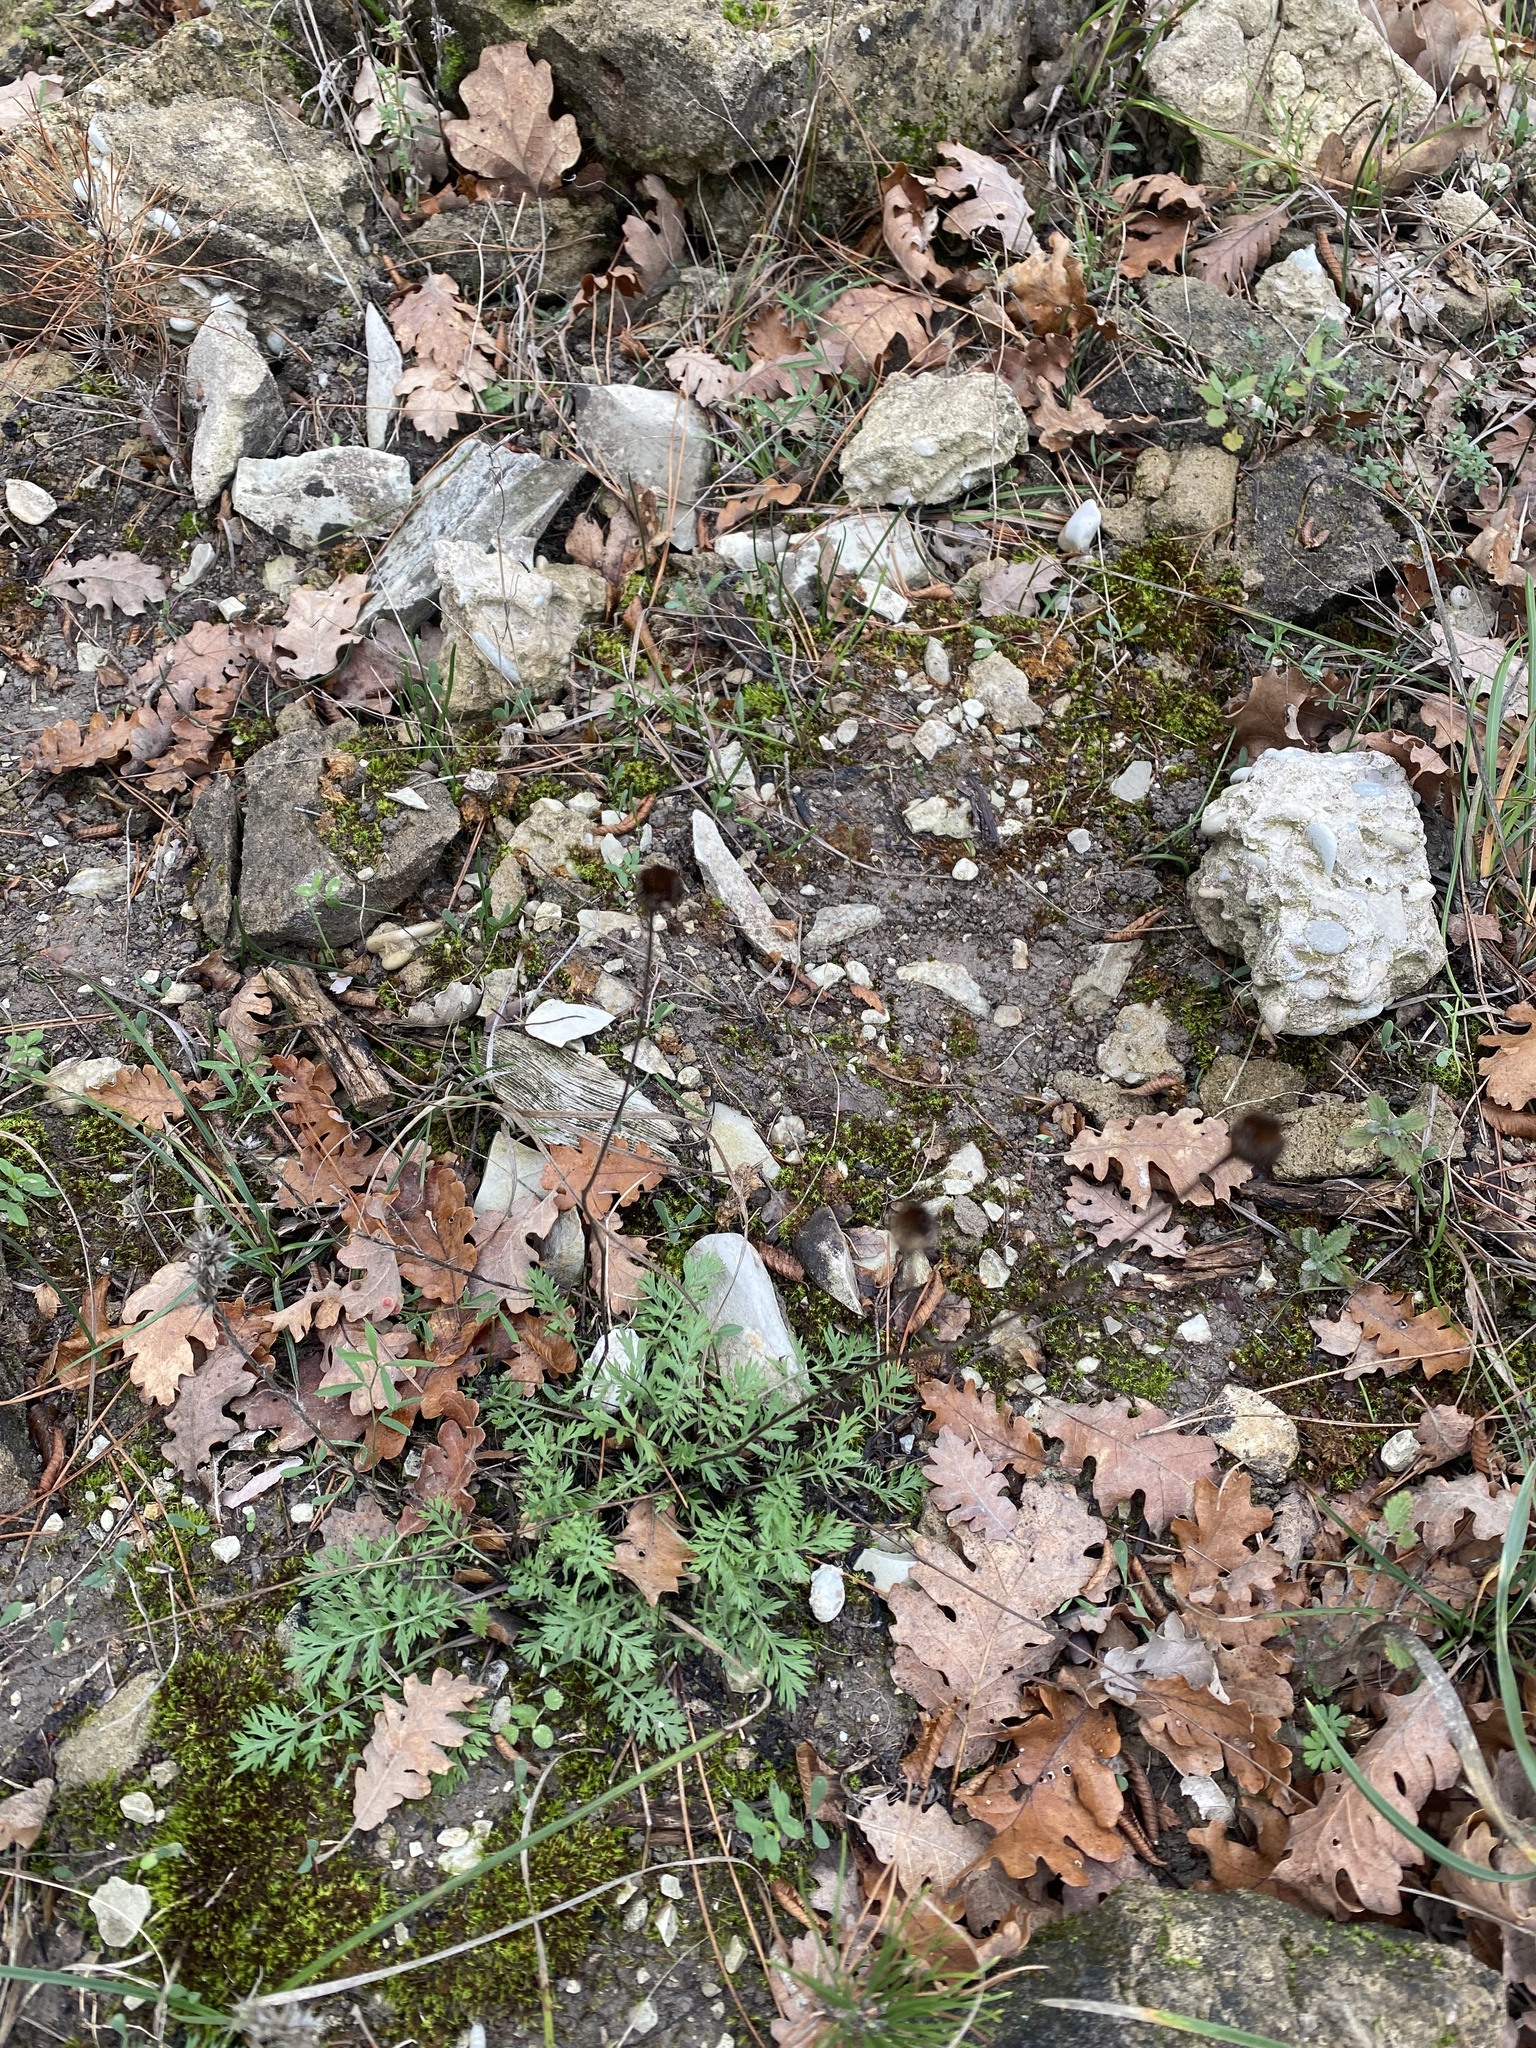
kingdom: Plantae
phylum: Tracheophyta
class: Magnoliopsida
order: Asterales
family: Asteraceae
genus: Tanacetum
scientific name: Tanacetum poteriifolium
